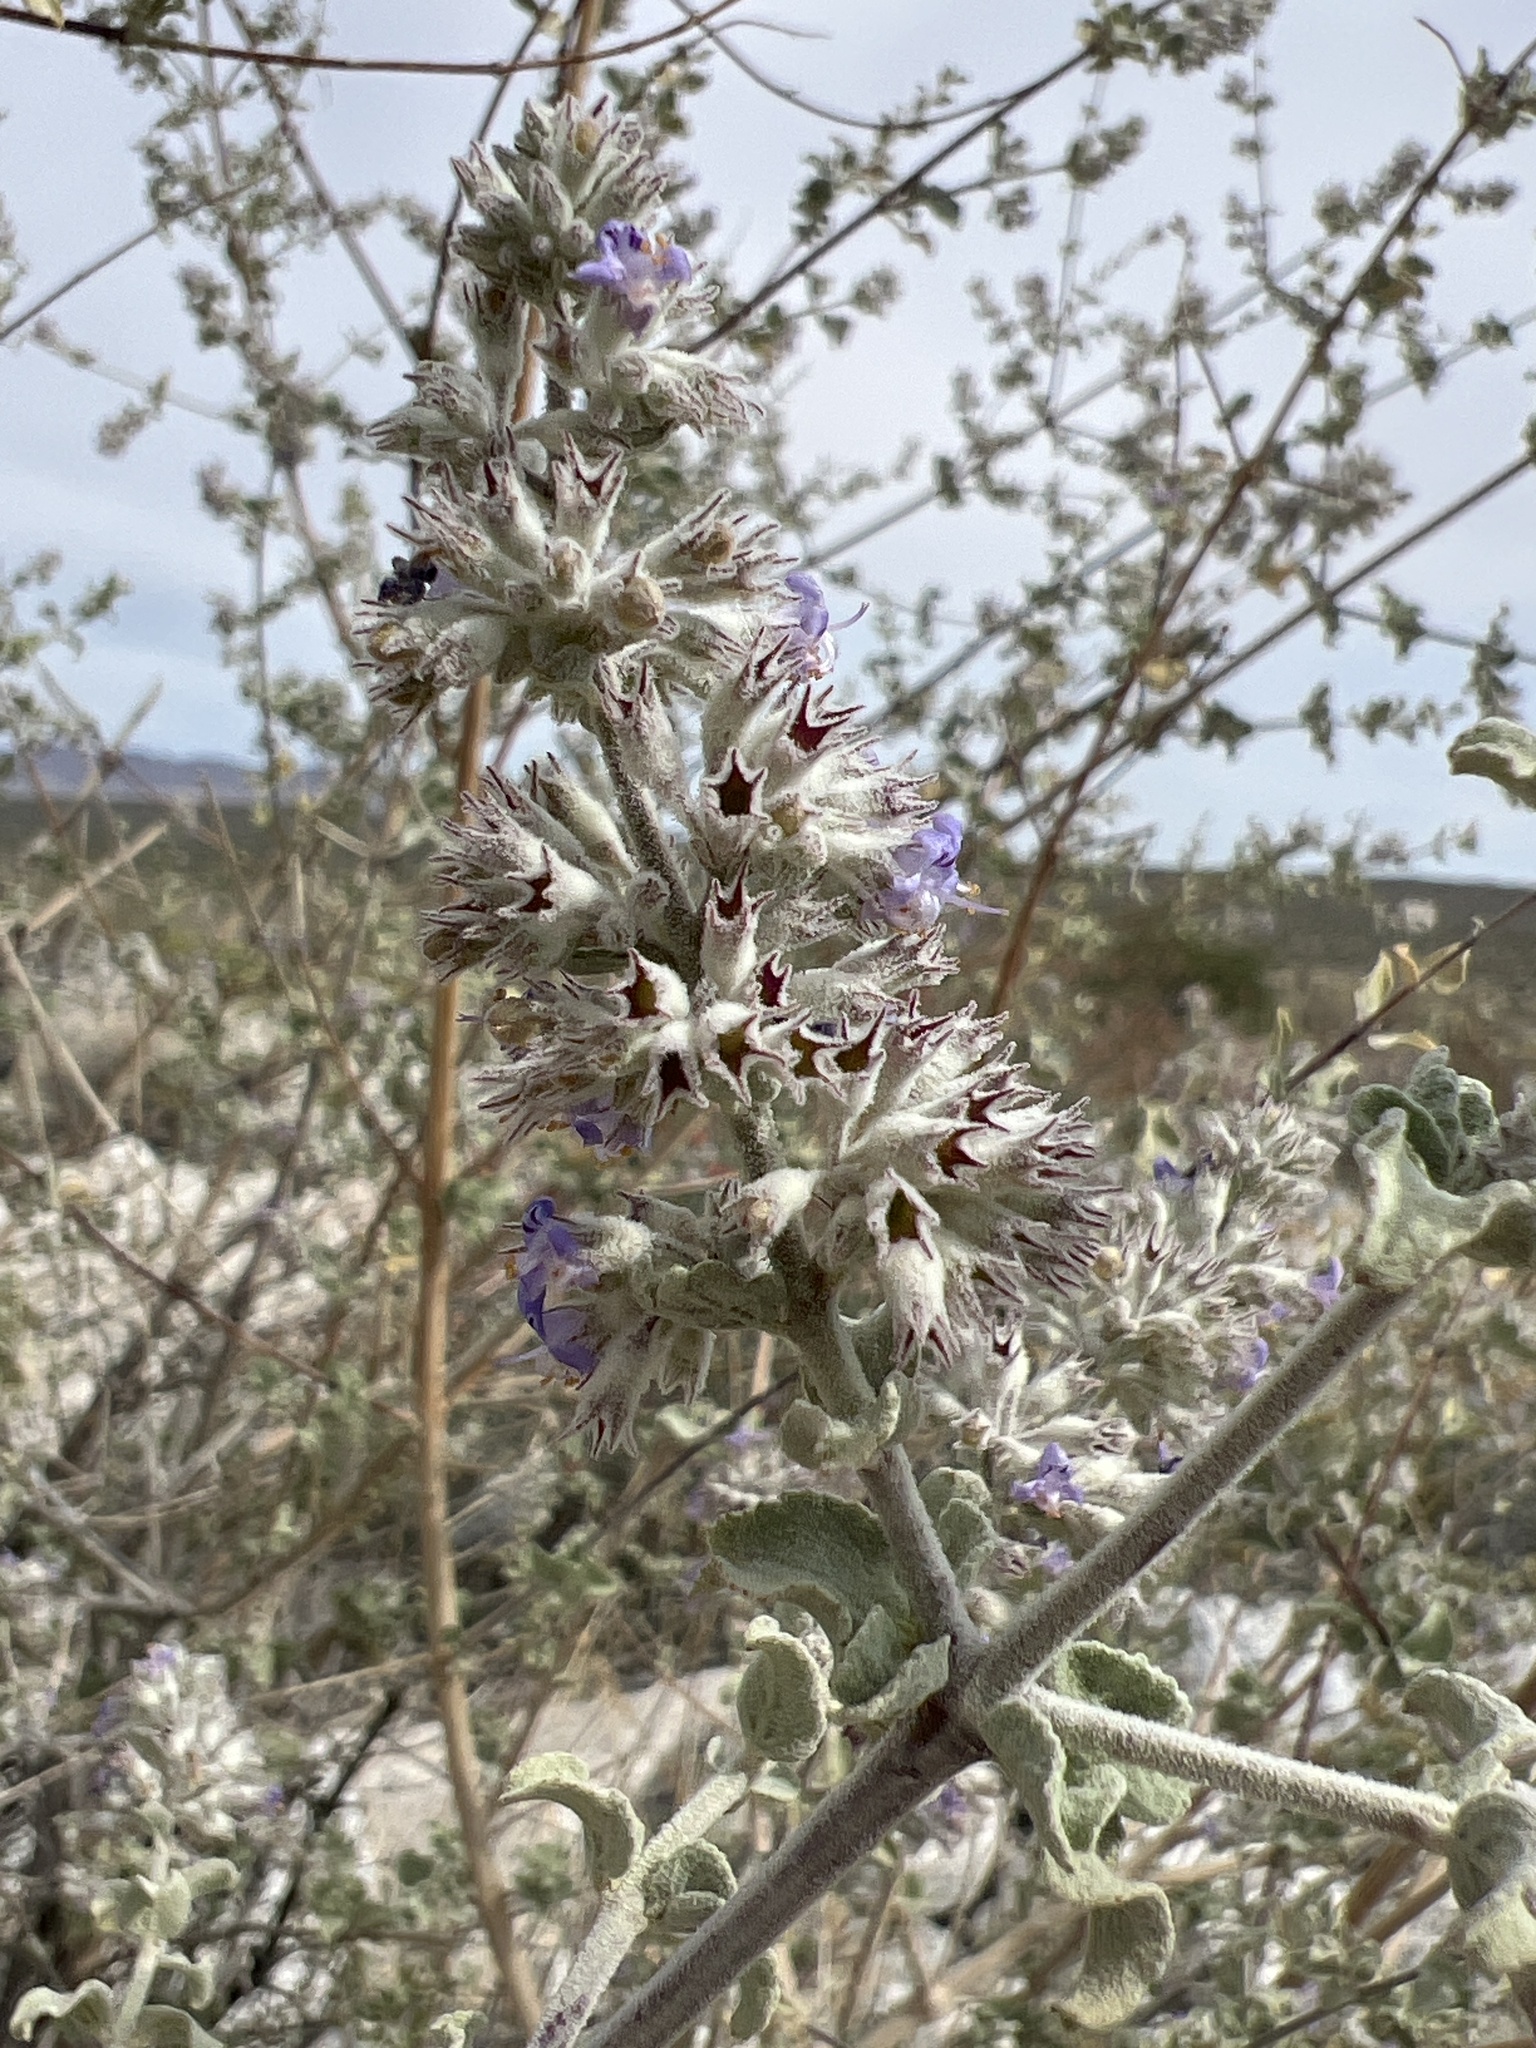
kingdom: Plantae
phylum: Tracheophyta
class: Magnoliopsida
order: Lamiales
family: Lamiaceae
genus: Condea
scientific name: Condea emoryi
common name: Chia
